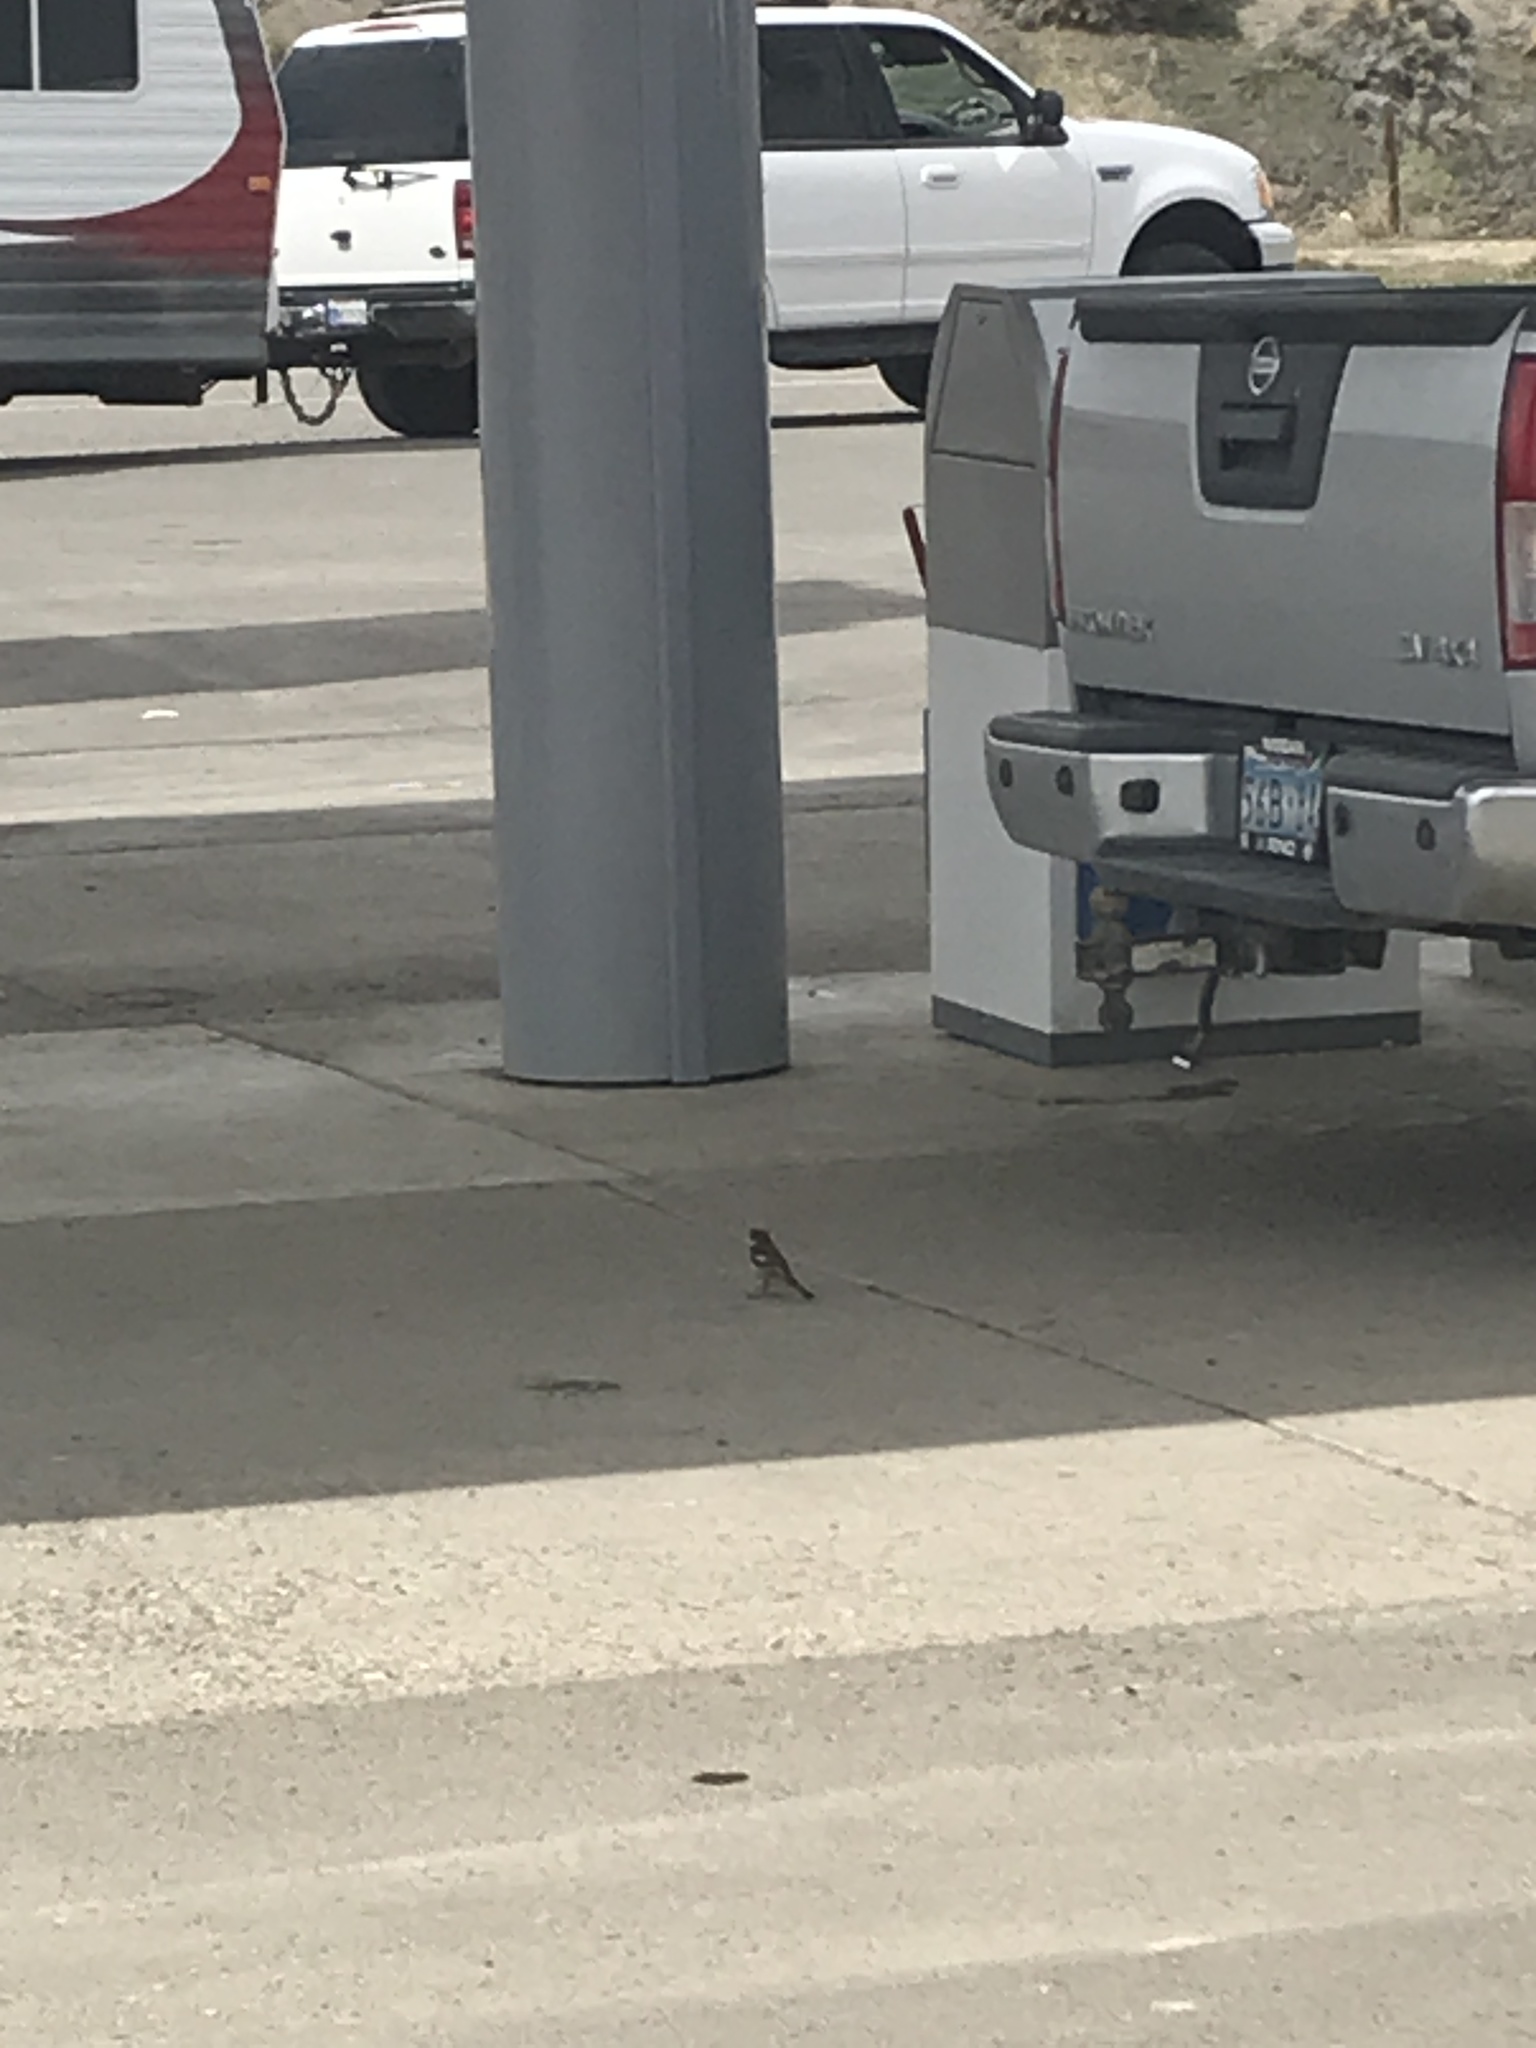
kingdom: Animalia
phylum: Chordata
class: Aves
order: Passeriformes
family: Passeridae
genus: Passer
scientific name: Passer domesticus
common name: House sparrow
